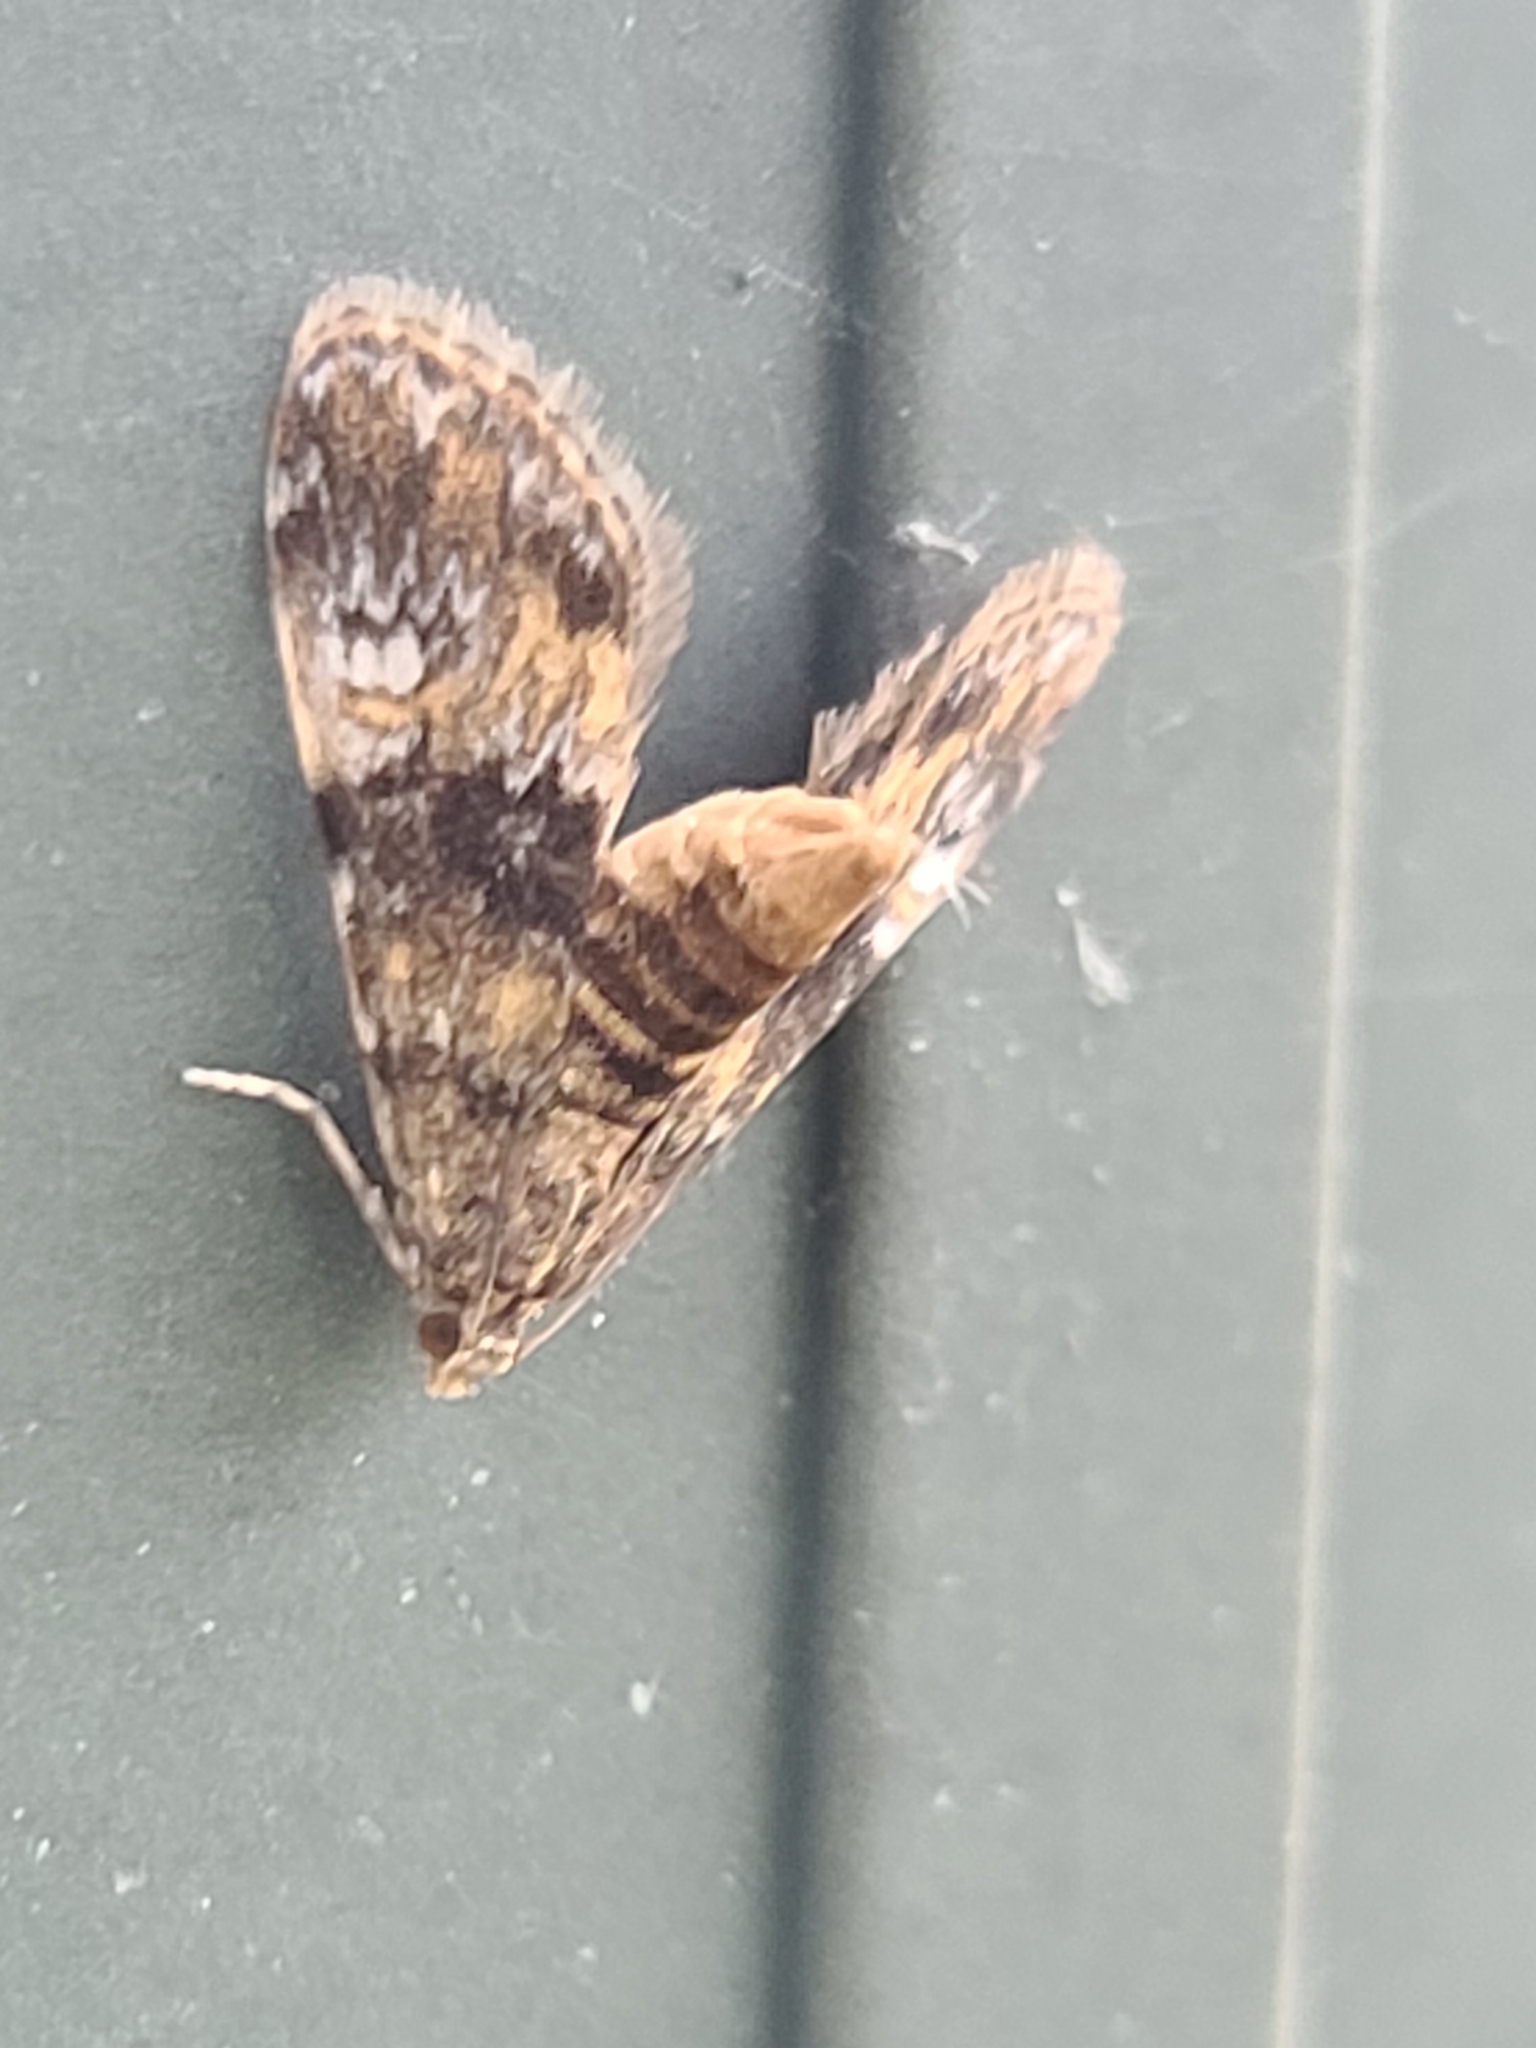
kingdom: Animalia
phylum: Arthropoda
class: Insecta
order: Lepidoptera
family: Crambidae
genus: Elophila
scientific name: Elophila obliteralis
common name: Waterlily leafcutter moth
